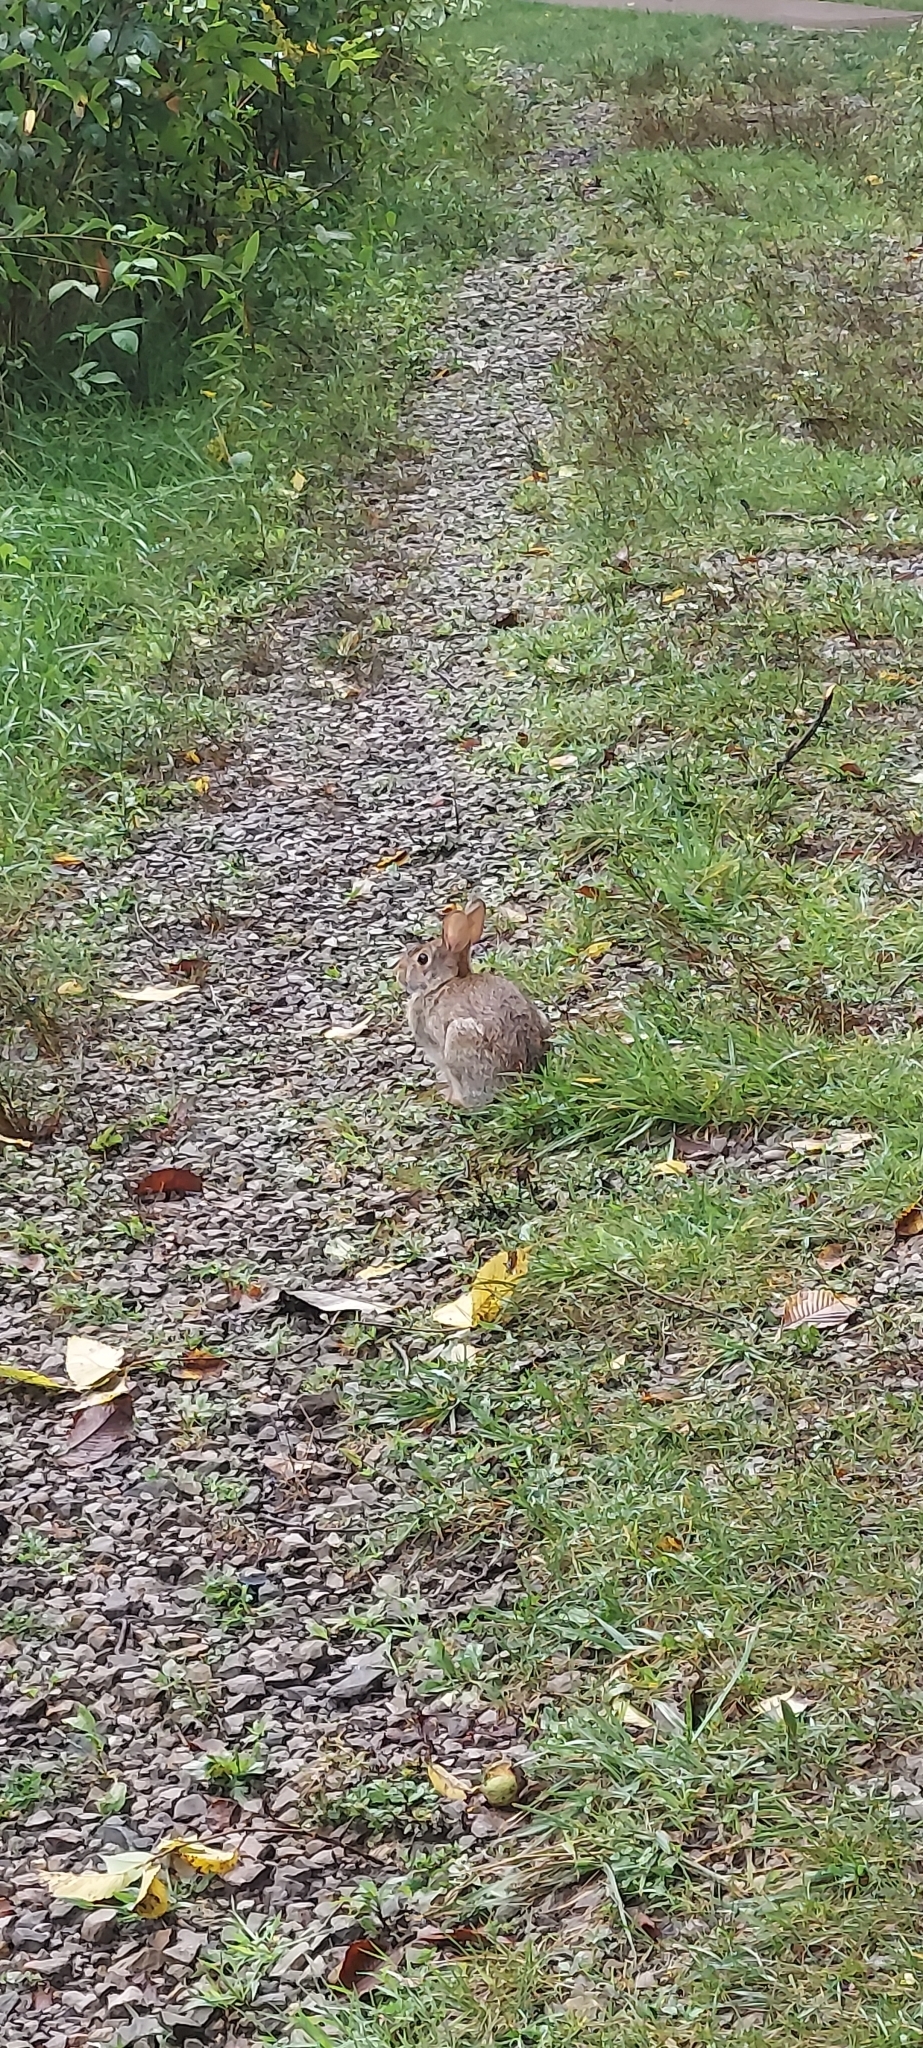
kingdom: Animalia
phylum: Chordata
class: Mammalia
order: Lagomorpha
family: Leporidae
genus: Sylvilagus
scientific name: Sylvilagus floridanus
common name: Eastern cottontail
